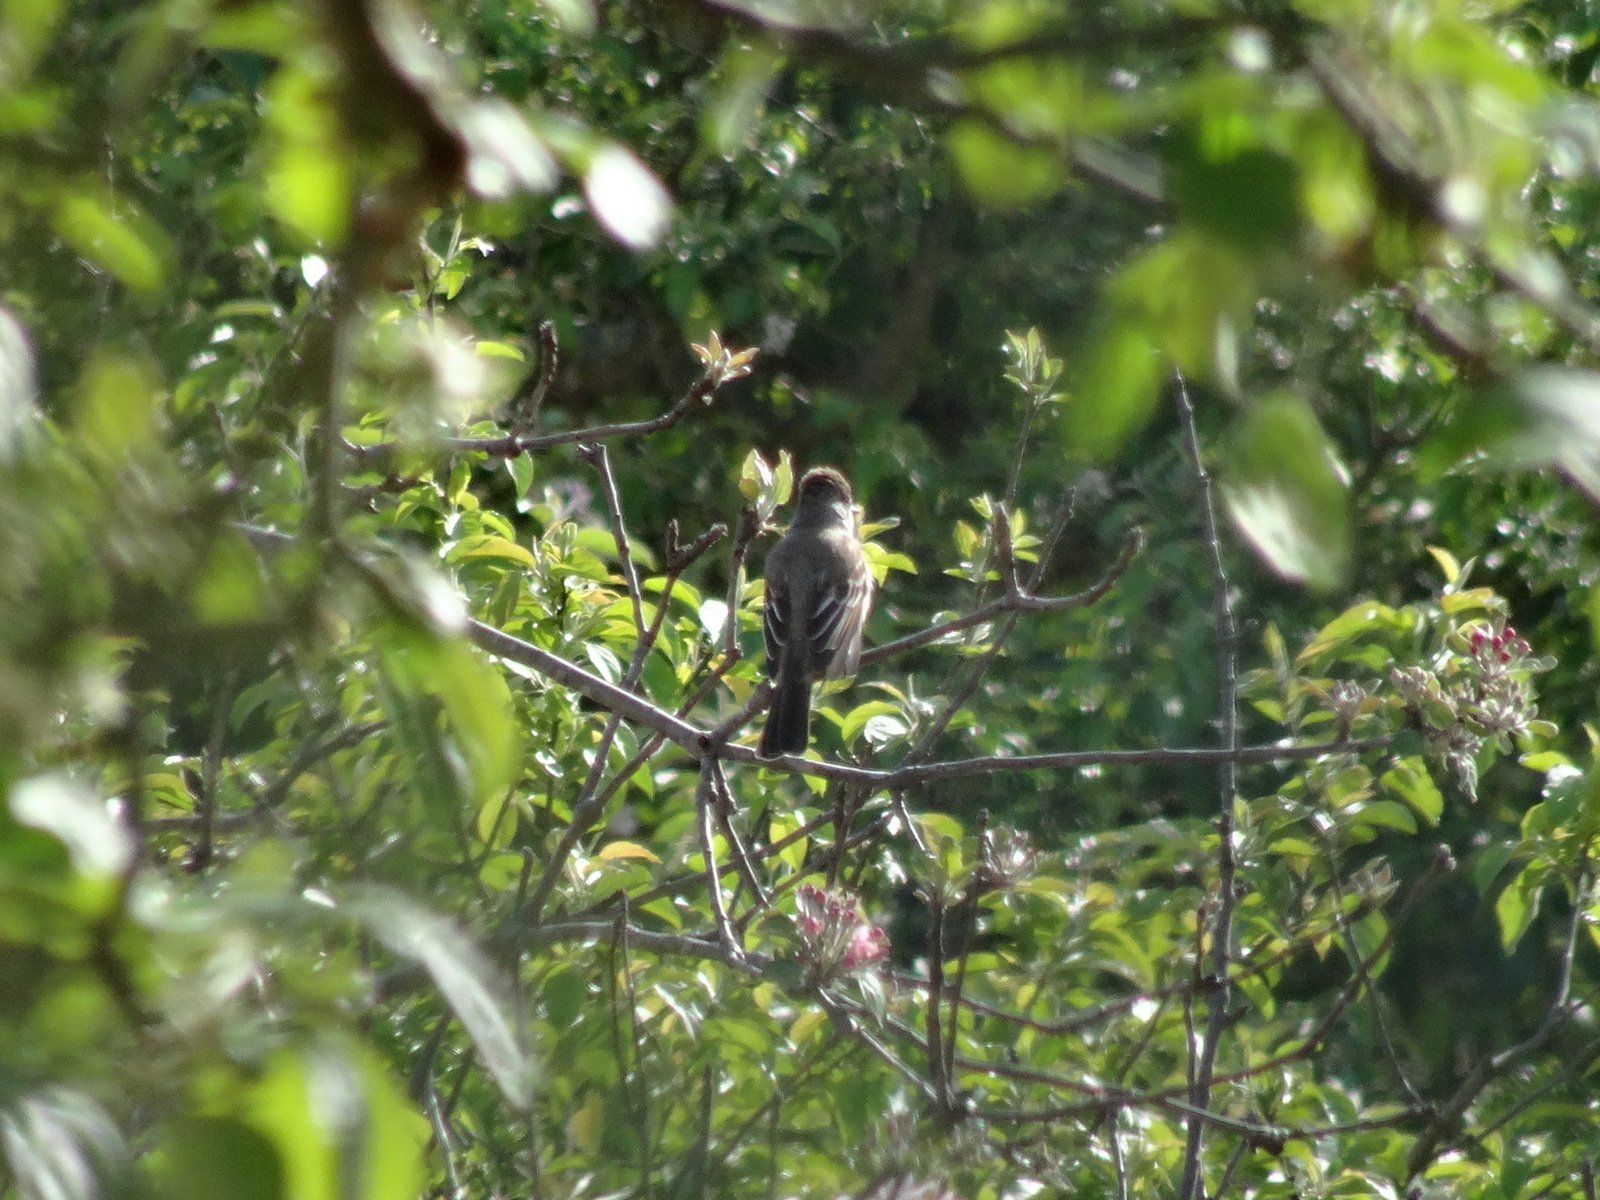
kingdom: Animalia
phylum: Chordata
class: Aves
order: Passeriformes
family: Tyrannidae
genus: Myiarchus
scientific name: Myiarchus cinerascens
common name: Ash-throated flycatcher
